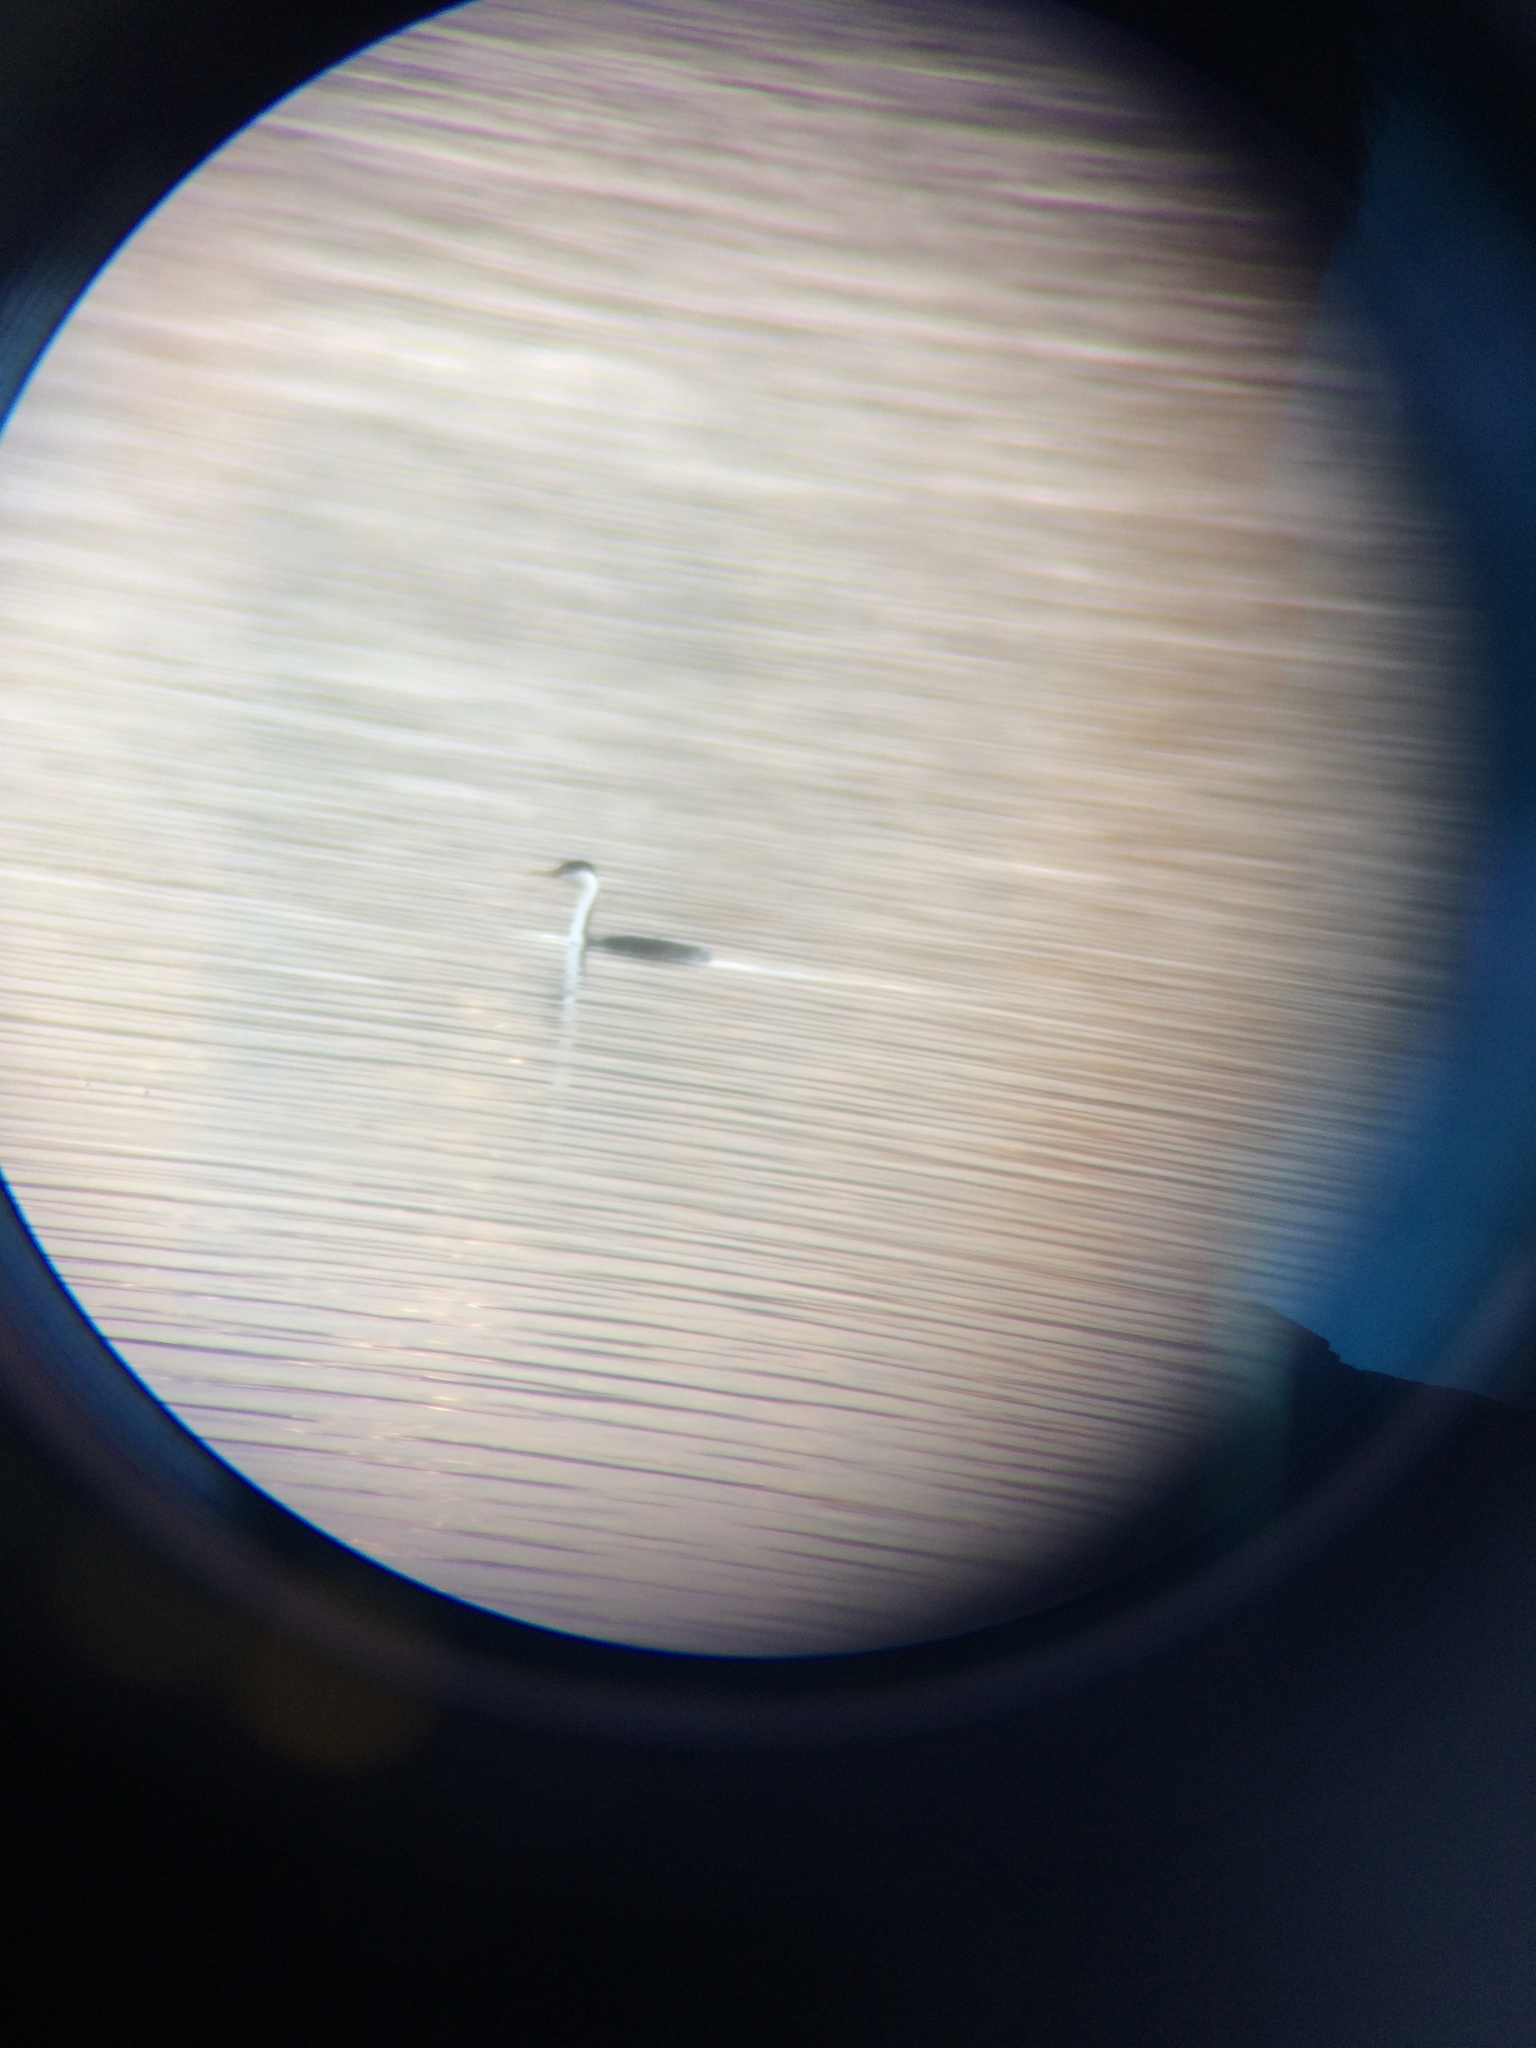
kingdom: Animalia
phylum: Chordata
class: Aves
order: Podicipediformes
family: Podicipedidae
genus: Aechmophorus
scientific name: Aechmophorus occidentalis
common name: Western grebe
